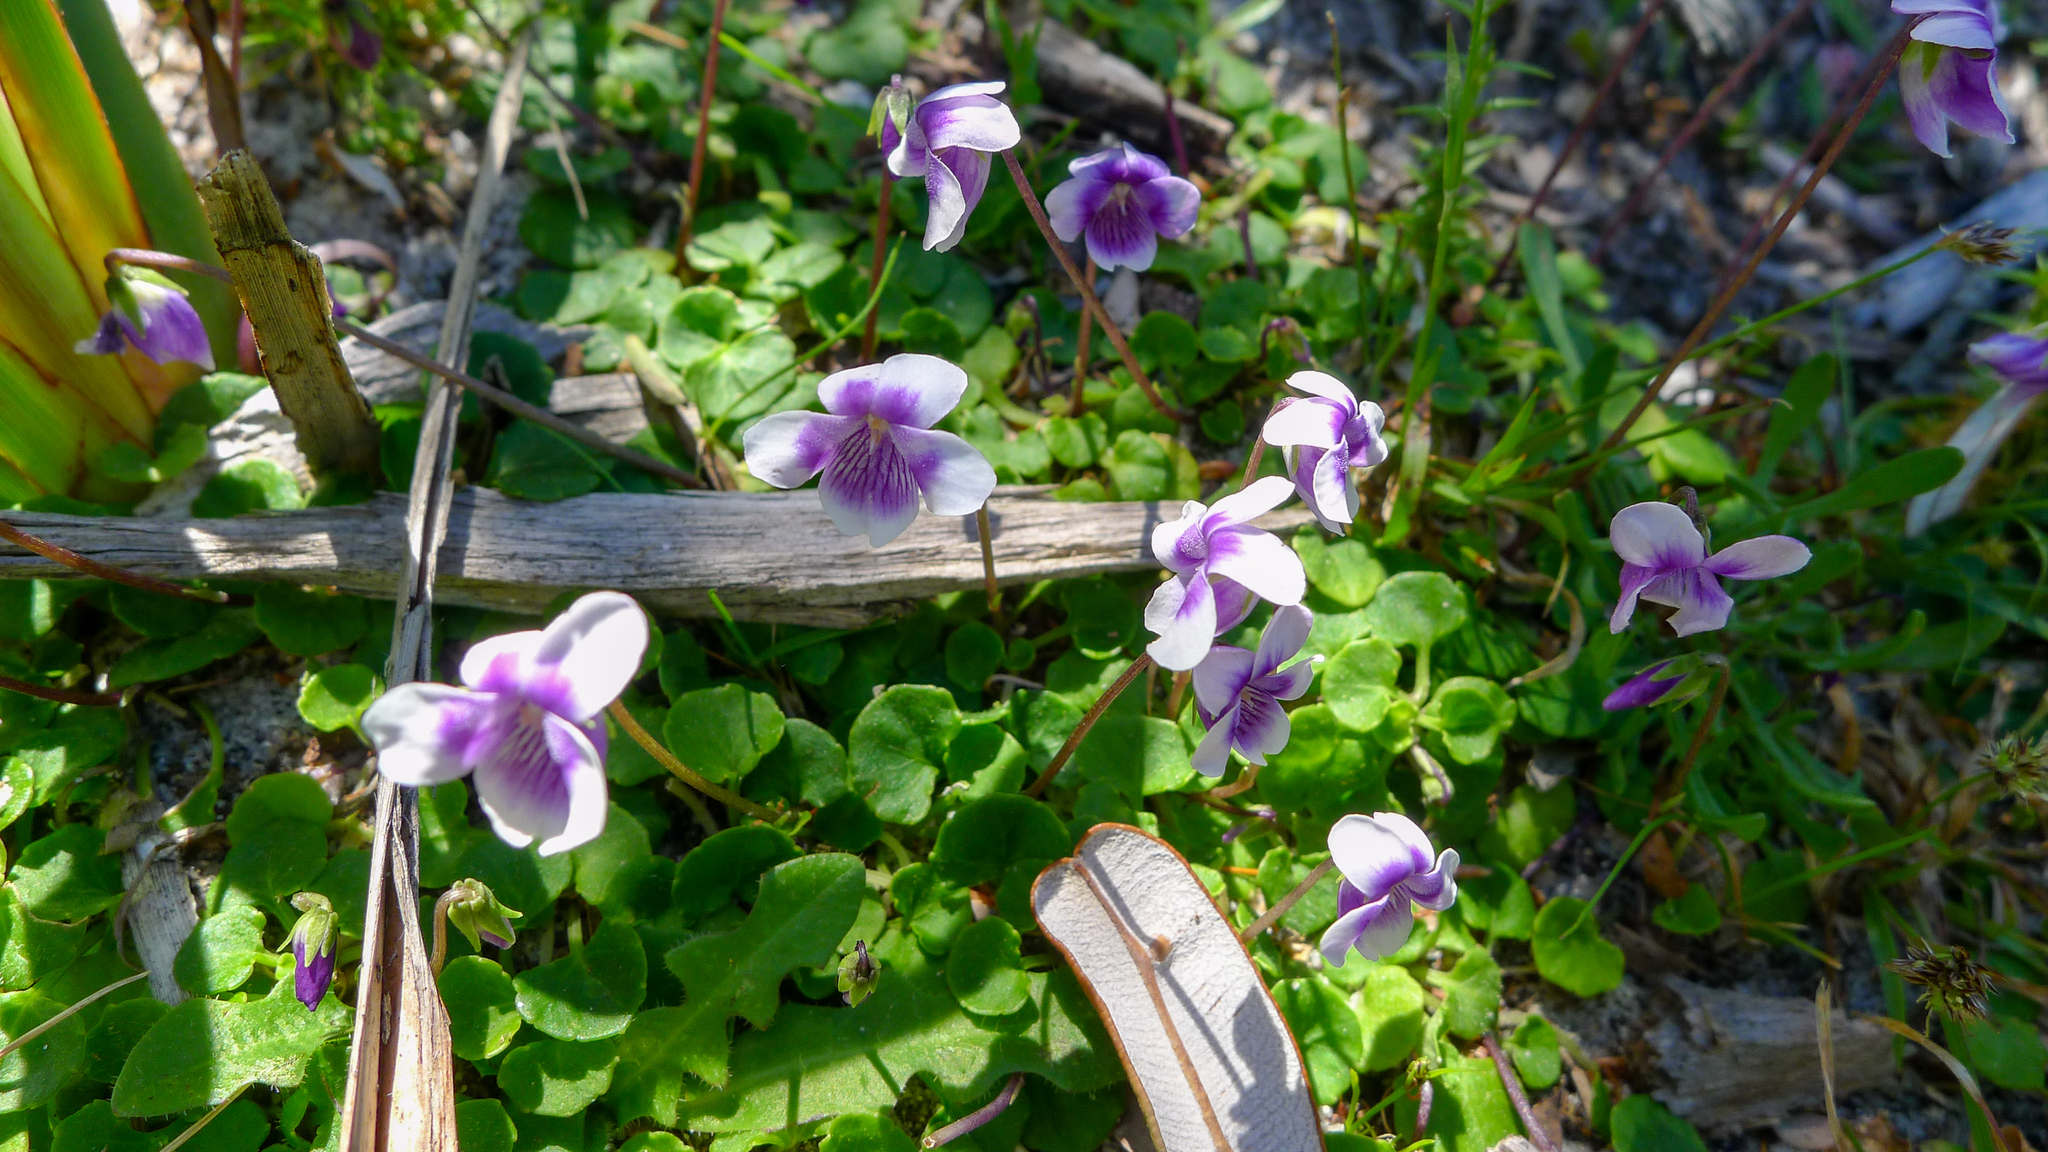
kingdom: Plantae
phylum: Tracheophyta
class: Magnoliopsida
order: Malpighiales
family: Violaceae
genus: Viola
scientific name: Viola hederacea
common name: Australian violet
